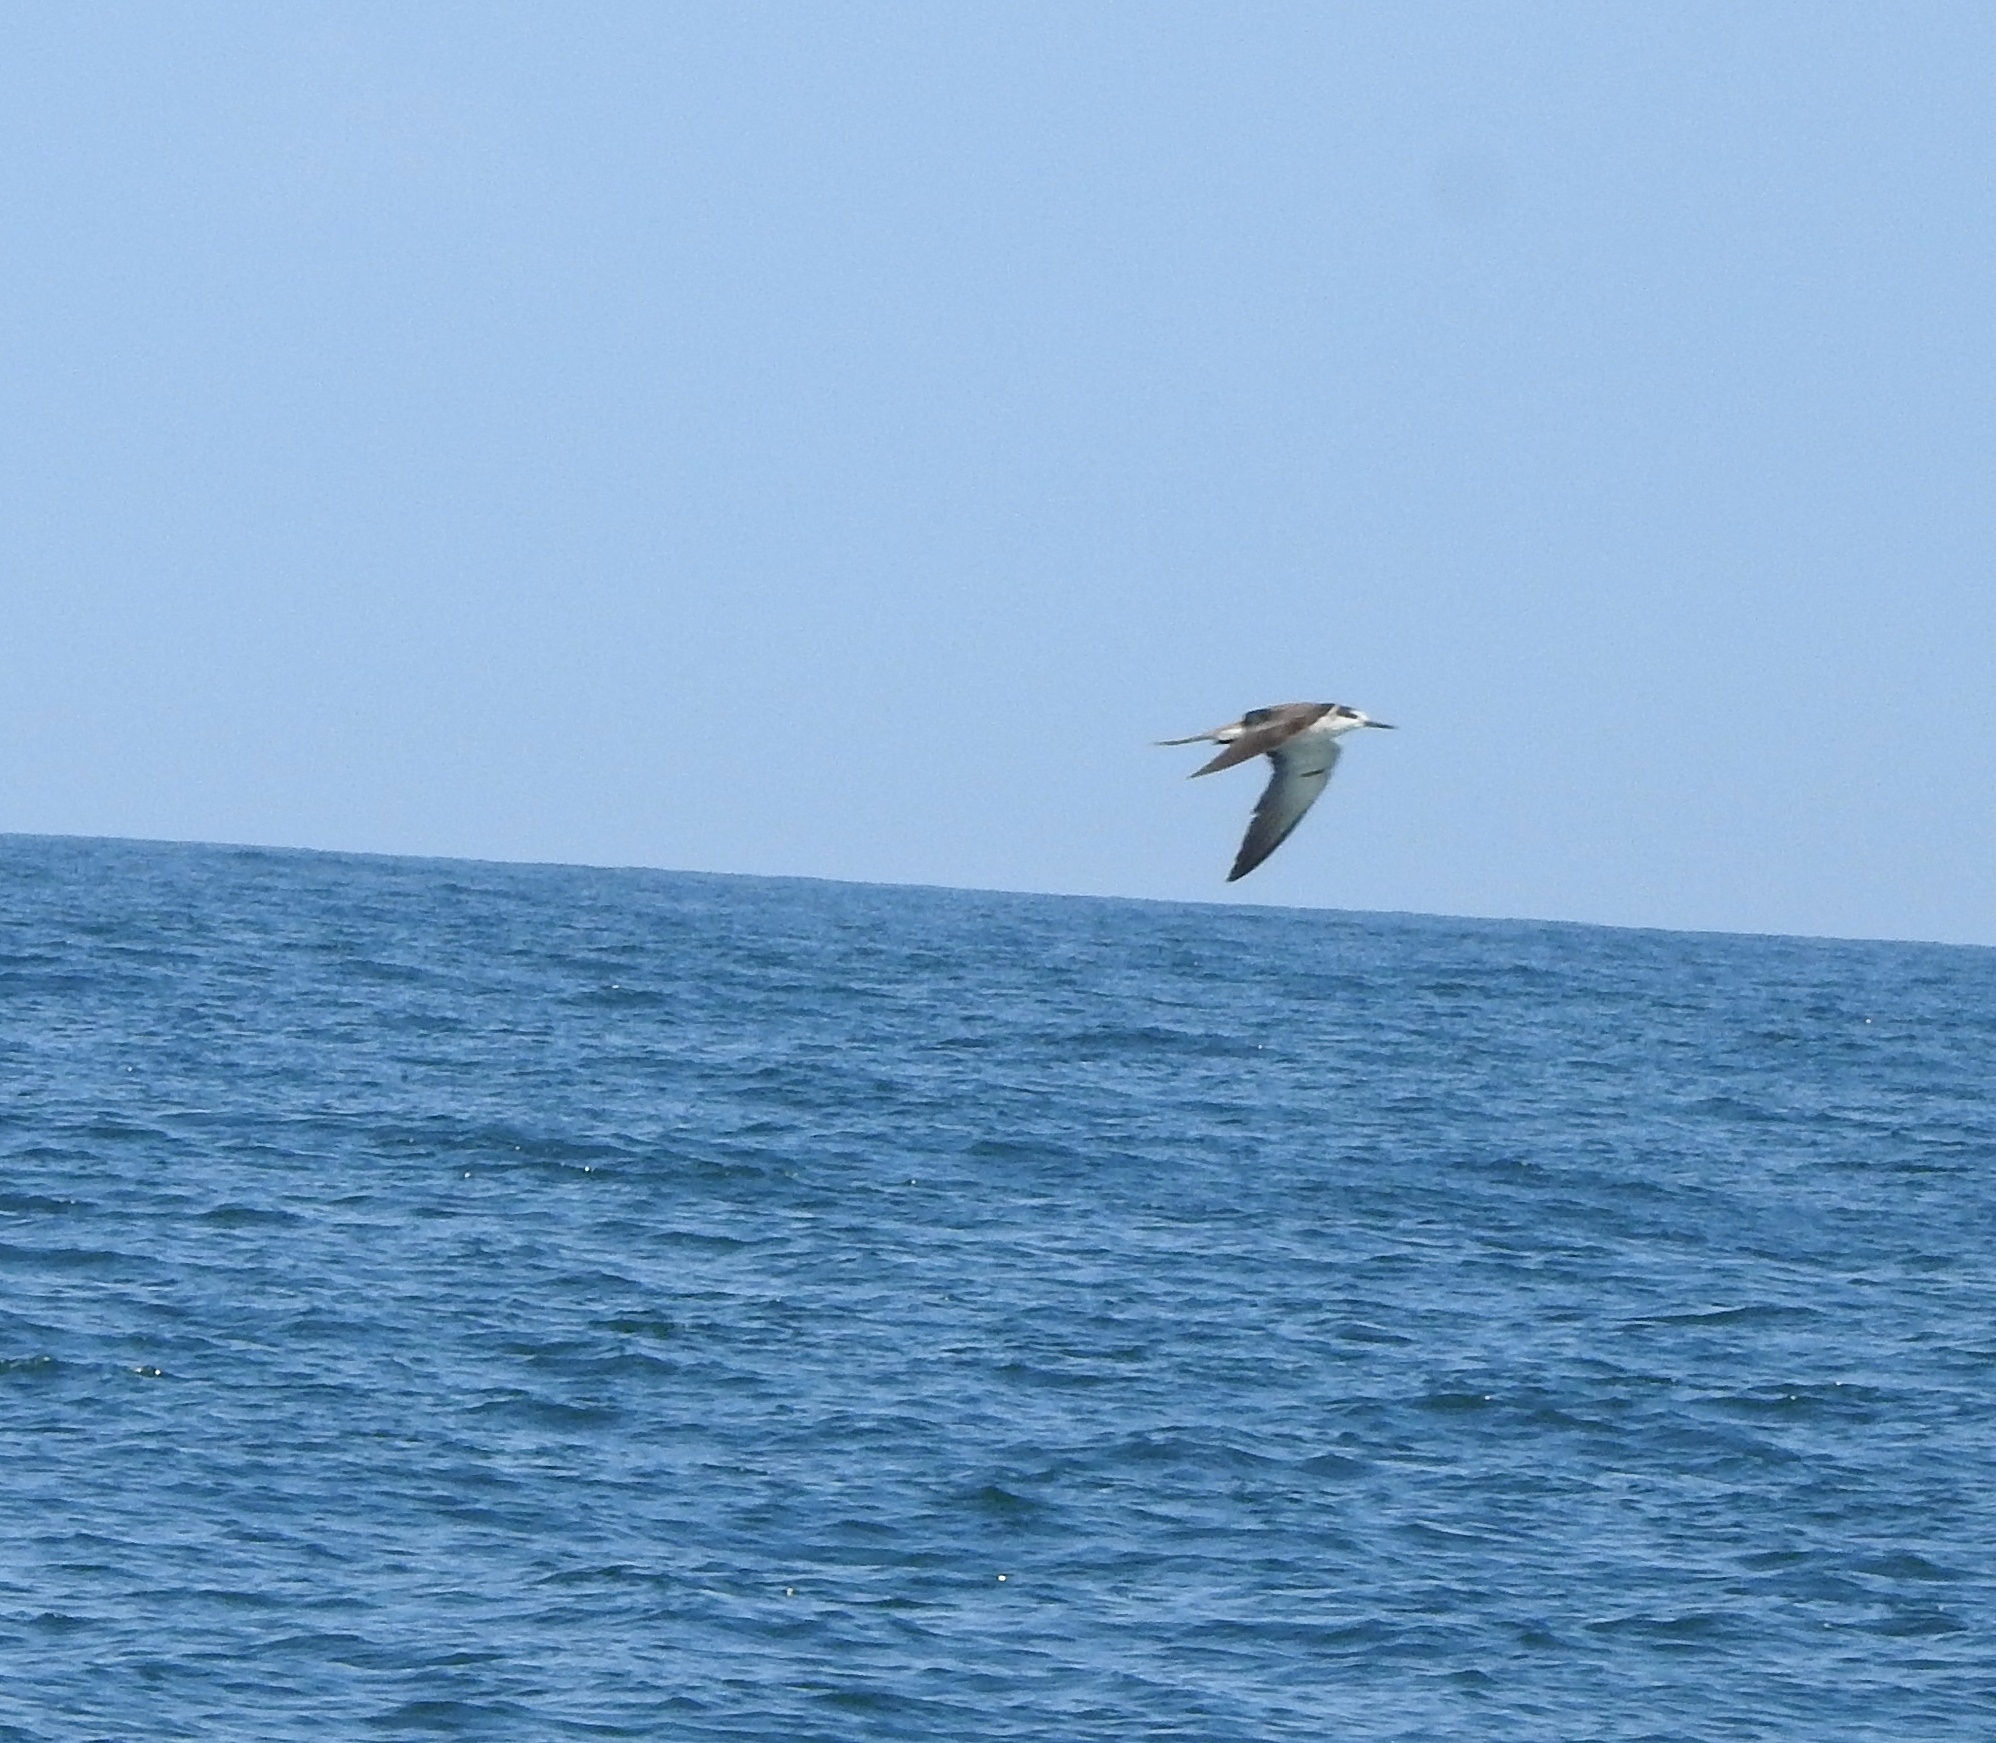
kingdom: Animalia
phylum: Chordata
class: Aves
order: Charadriiformes
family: Laridae
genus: Onychoprion
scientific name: Onychoprion anaethetus
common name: Bridled tern
